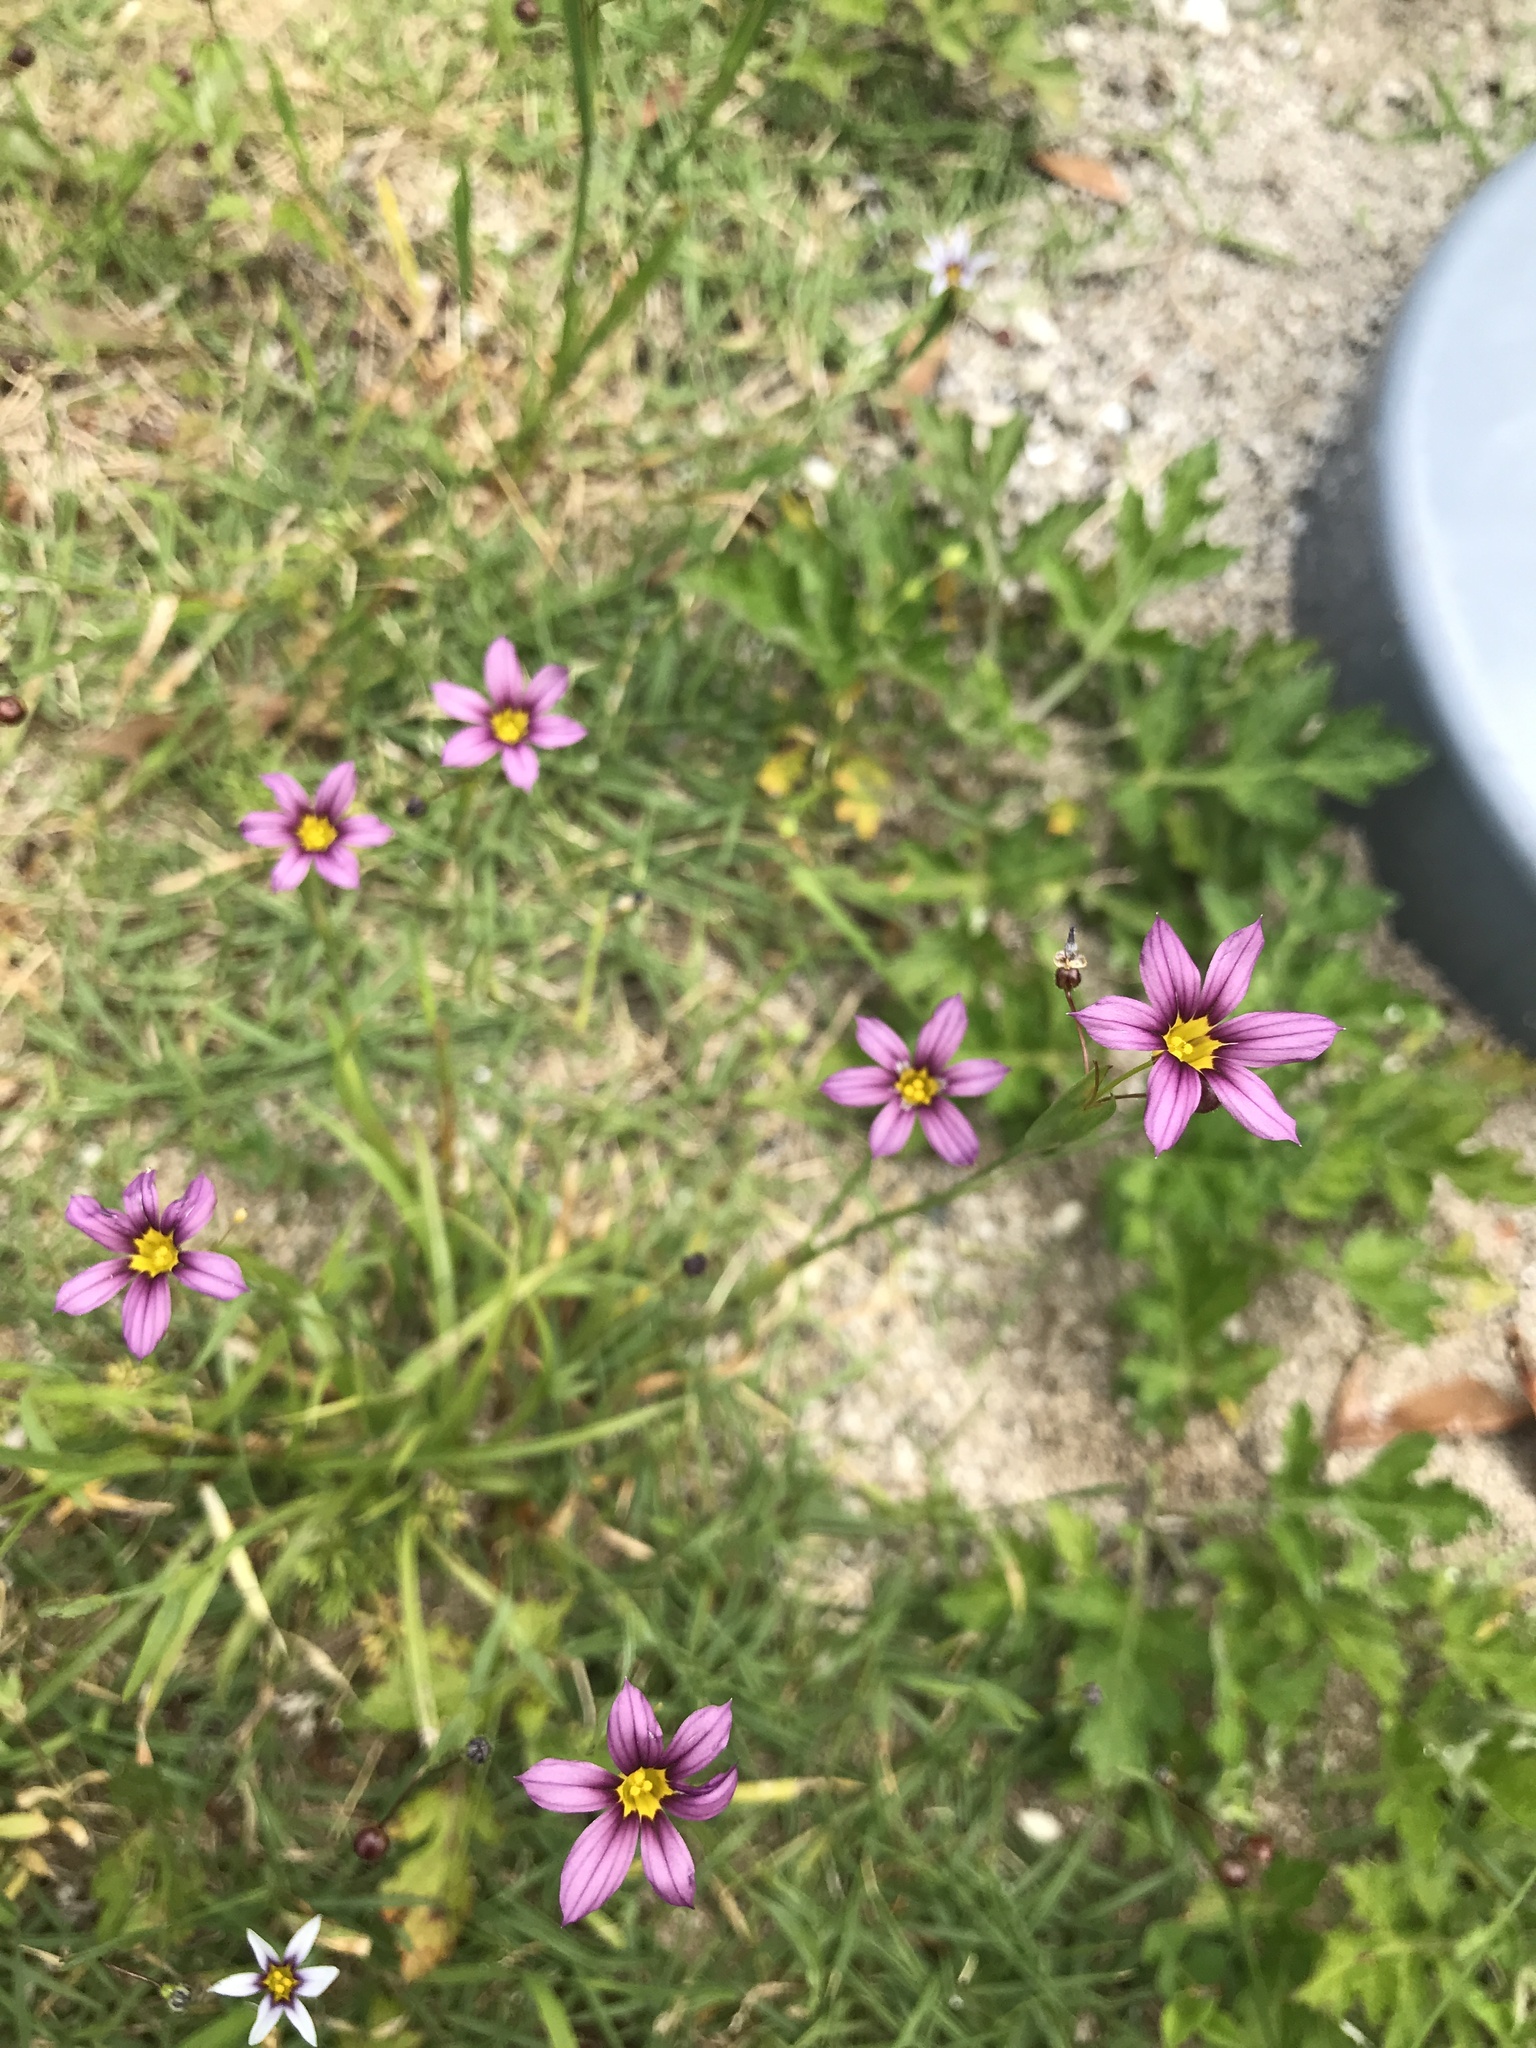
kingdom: Plantae
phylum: Tracheophyta
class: Liliopsida
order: Asparagales
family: Iridaceae
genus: Sisyrinchium
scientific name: Sisyrinchium micranthum
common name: Bermuda pigroot
